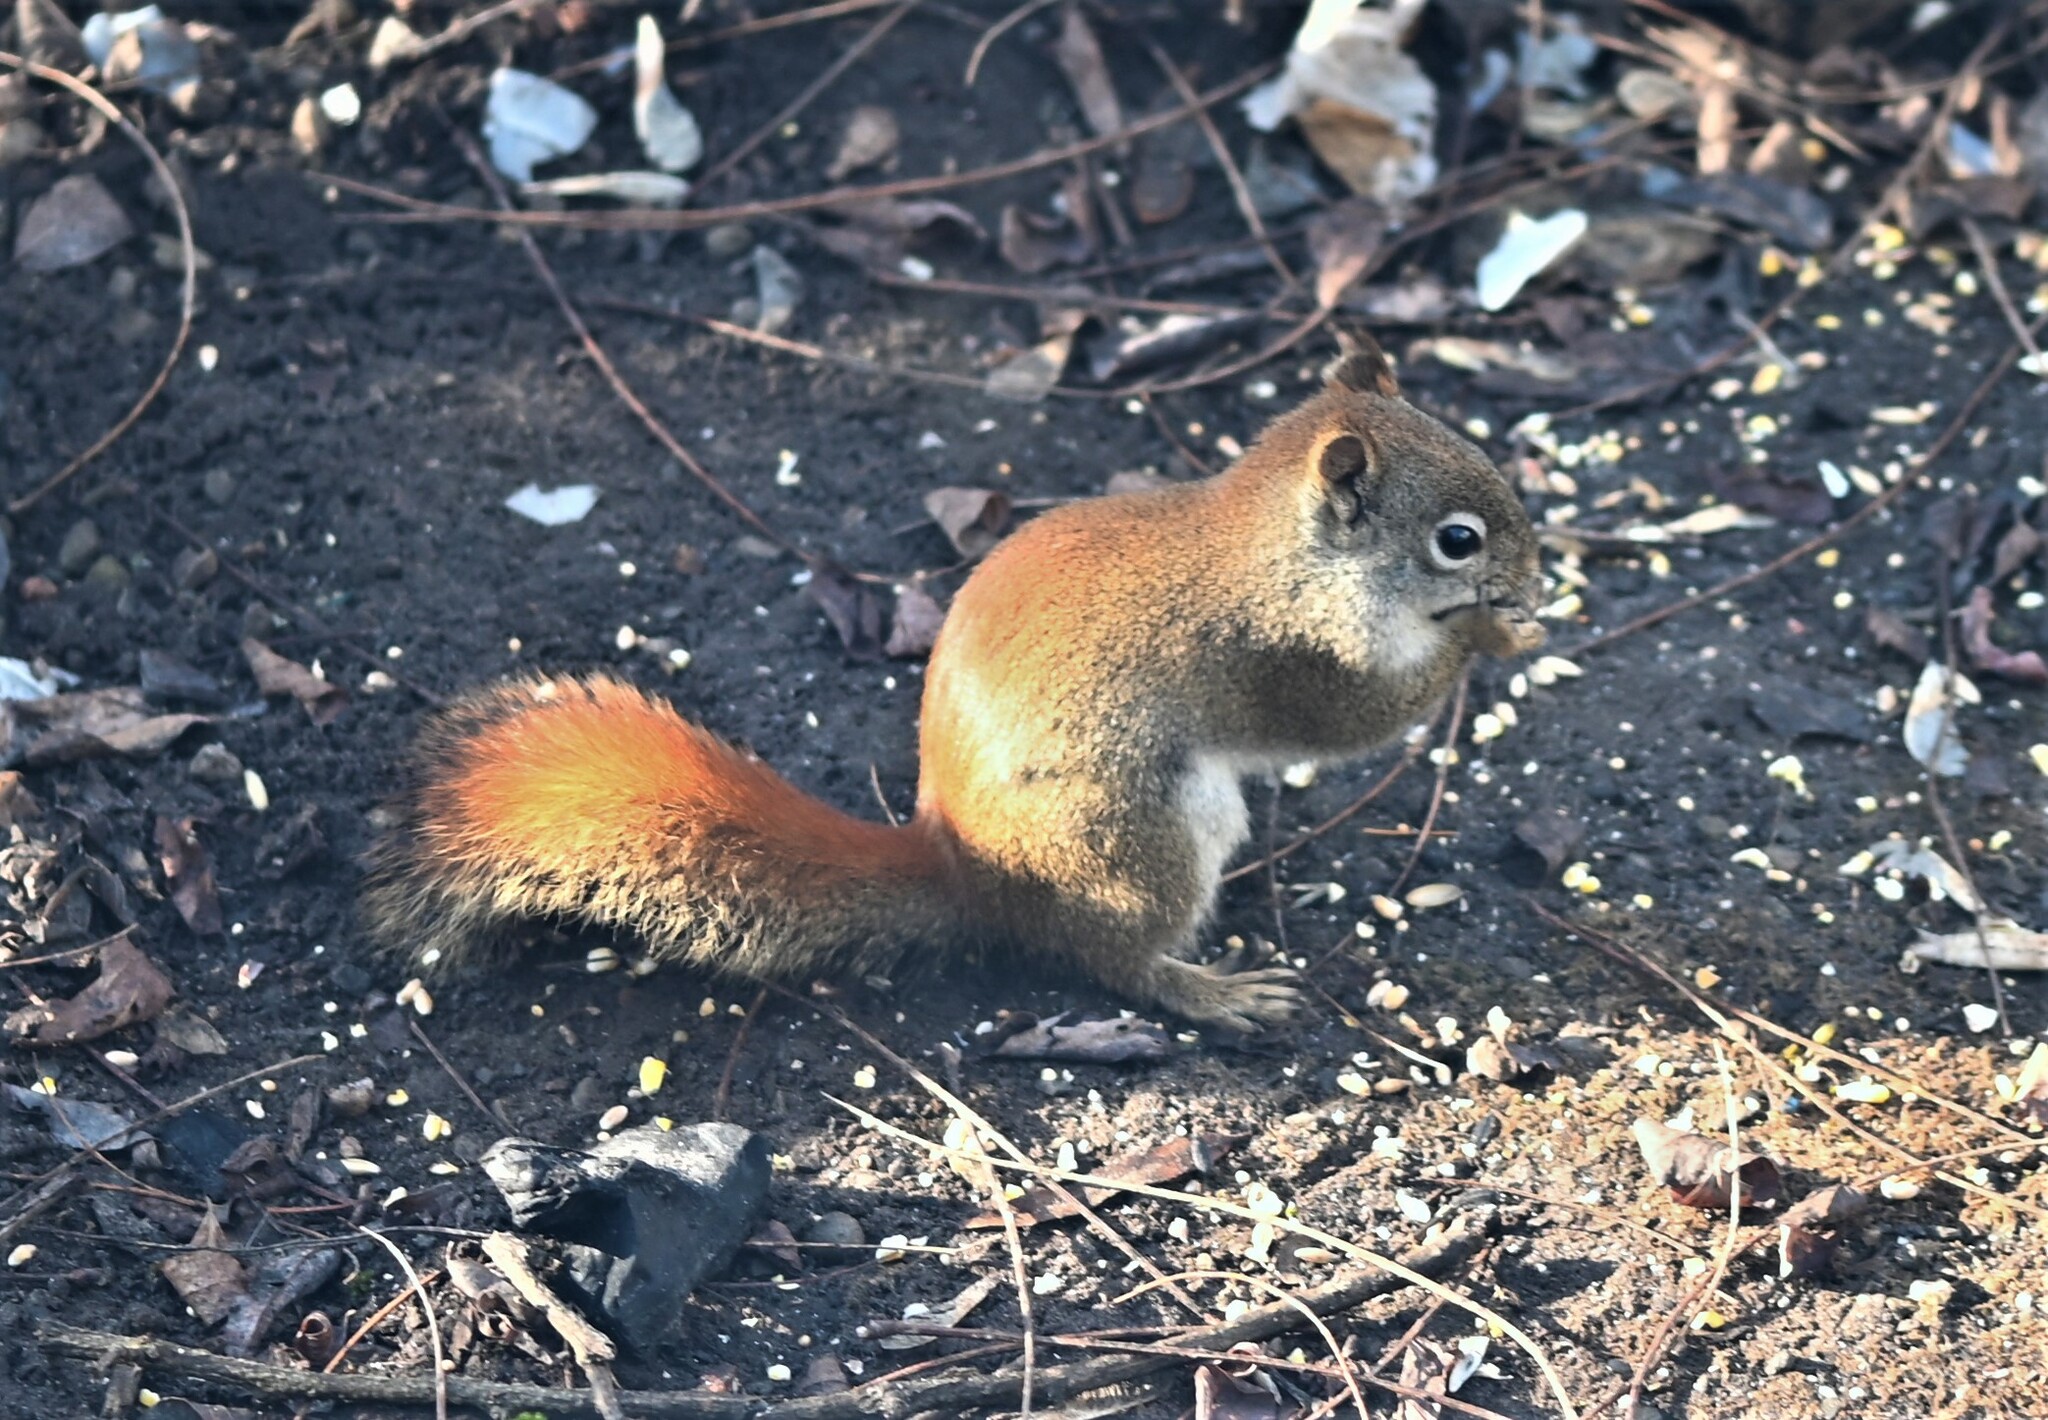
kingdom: Animalia
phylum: Chordata
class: Mammalia
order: Rodentia
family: Sciuridae
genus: Tamiasciurus
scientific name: Tamiasciurus hudsonicus
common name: Red squirrel
